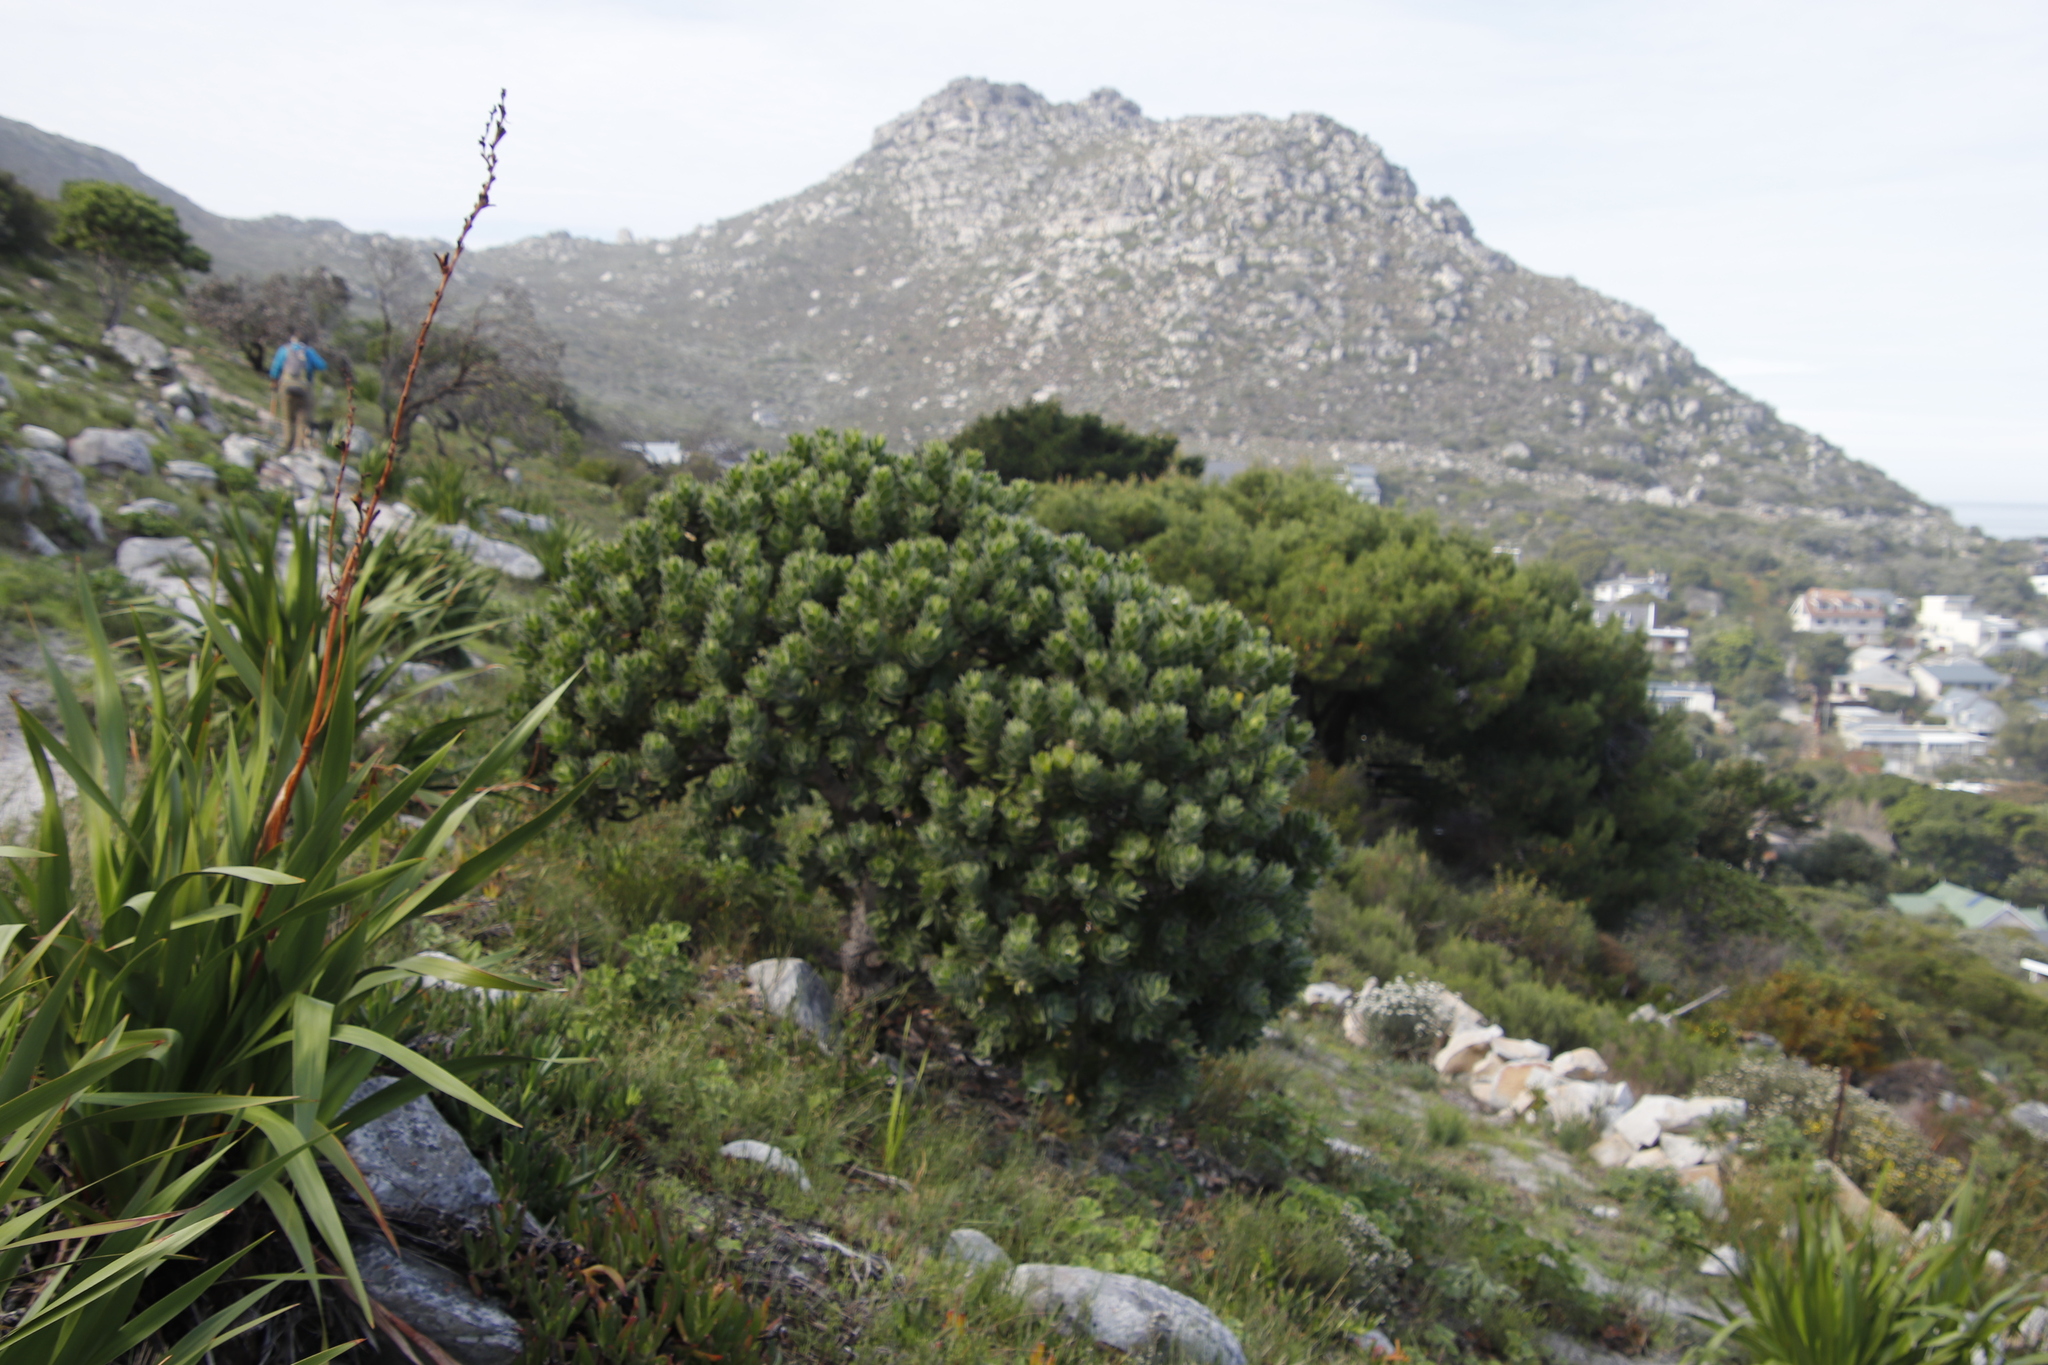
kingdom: Plantae
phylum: Tracheophyta
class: Magnoliopsida
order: Proteales
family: Proteaceae
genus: Leucospermum
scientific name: Leucospermum conocarpodendron
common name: Tree pincushion
